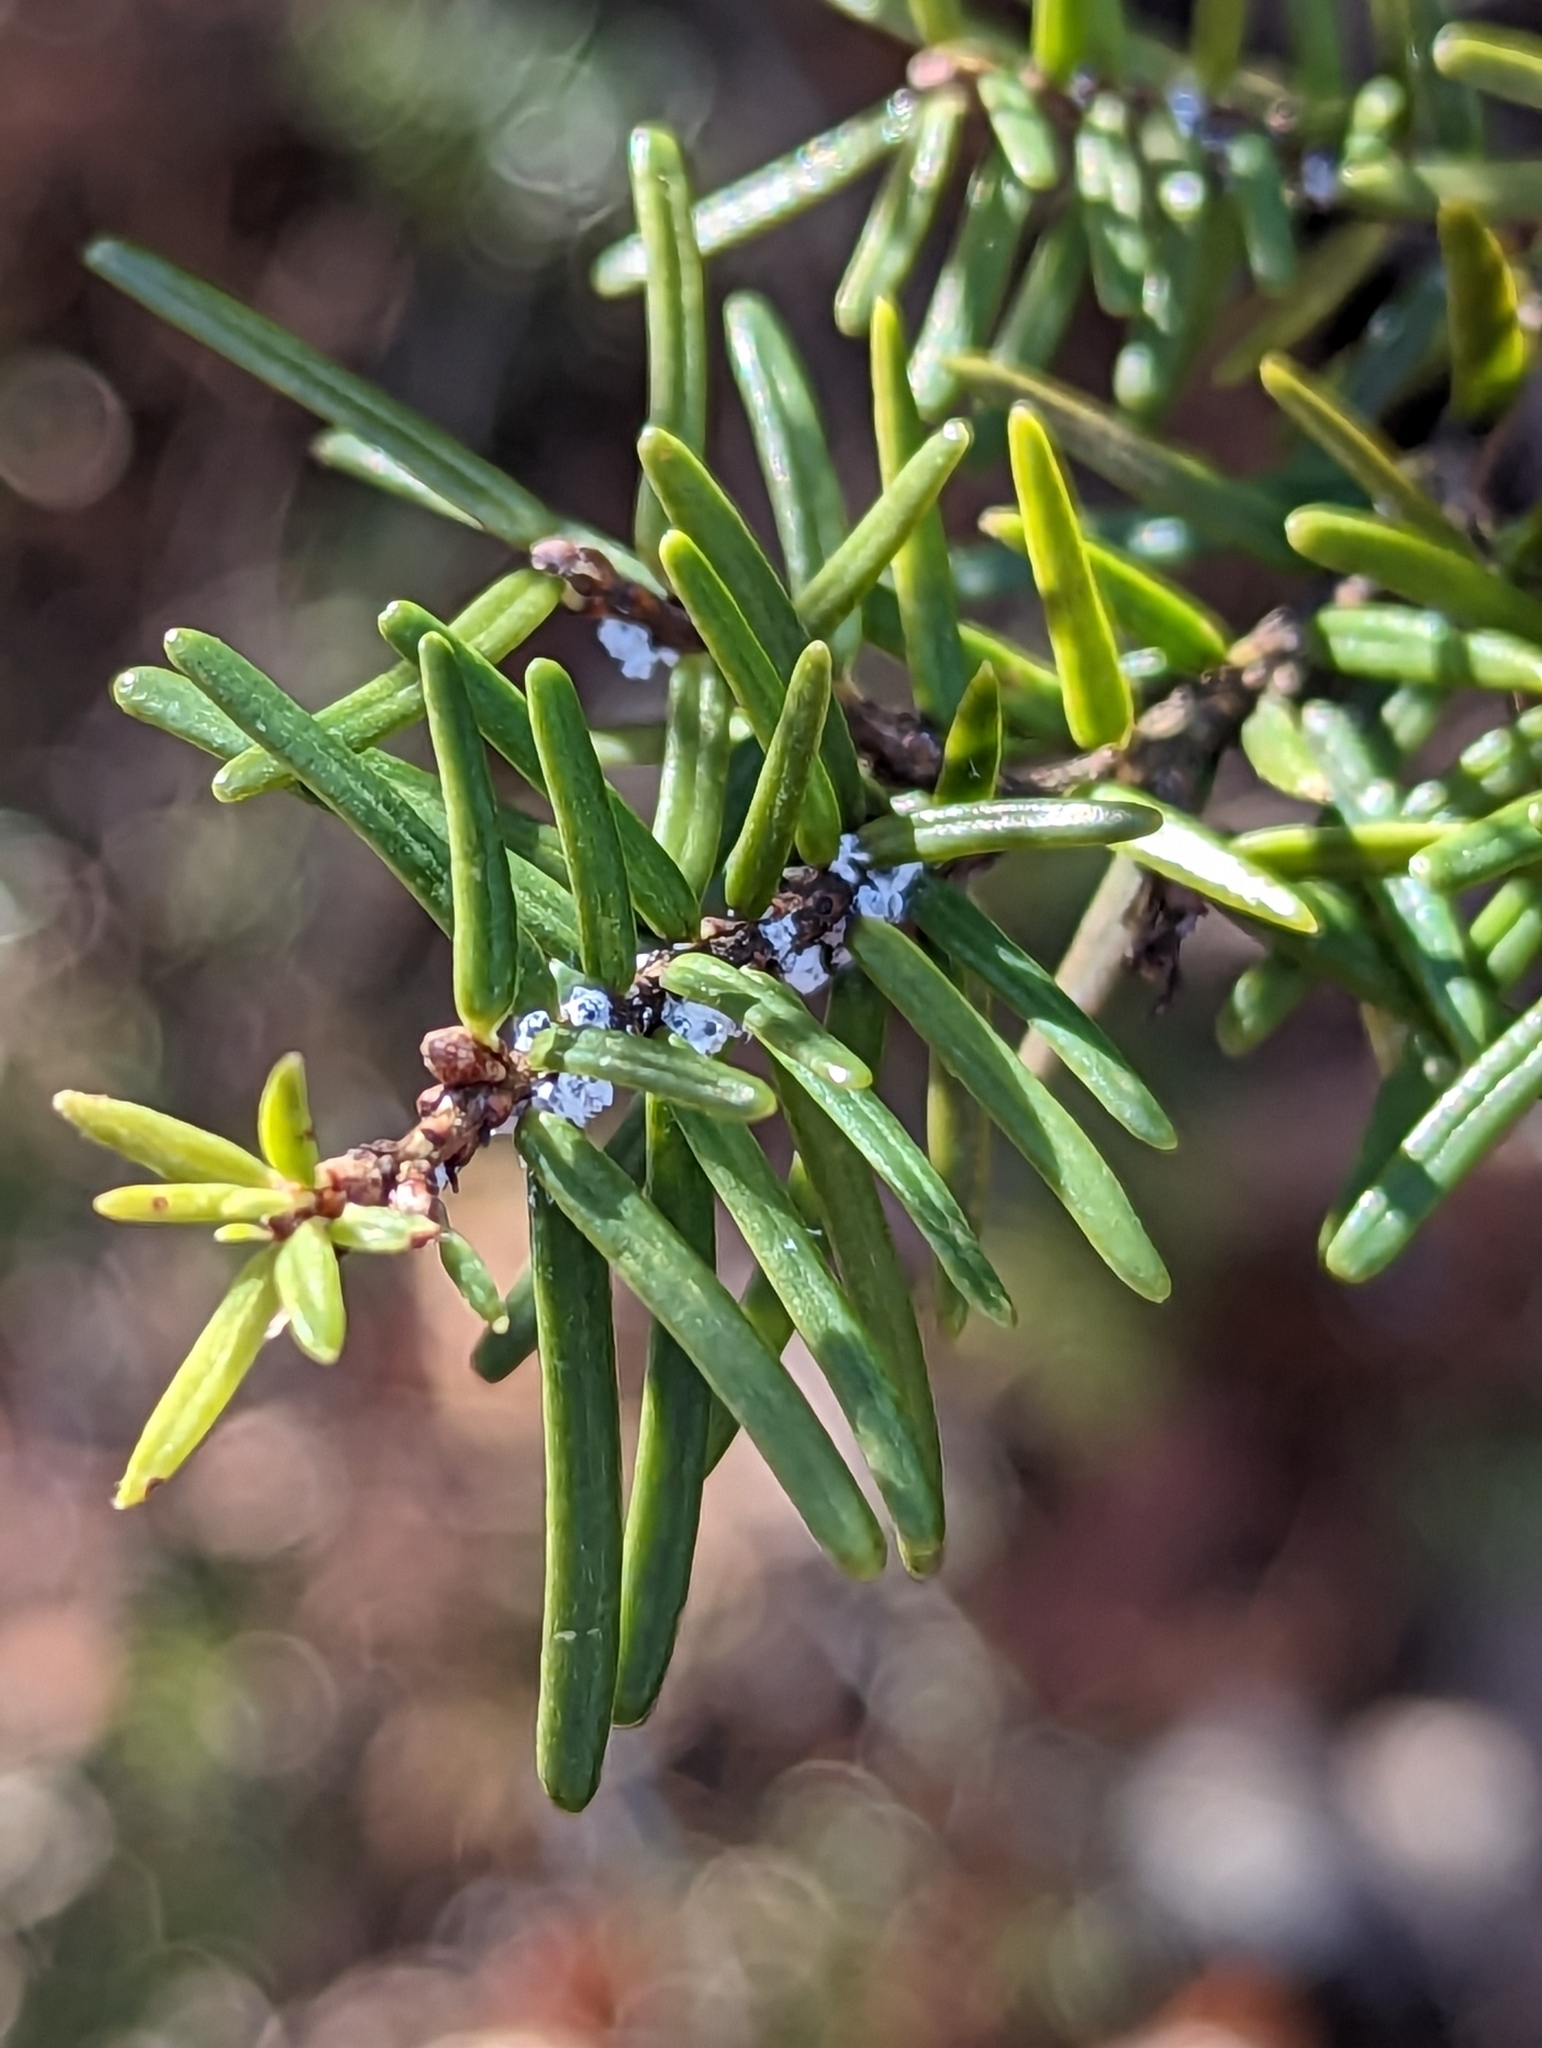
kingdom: Animalia
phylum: Arthropoda
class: Insecta
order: Hemiptera
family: Adelgidae
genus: Adelges
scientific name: Adelges tsugae
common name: Hemlock woolly adelgid
